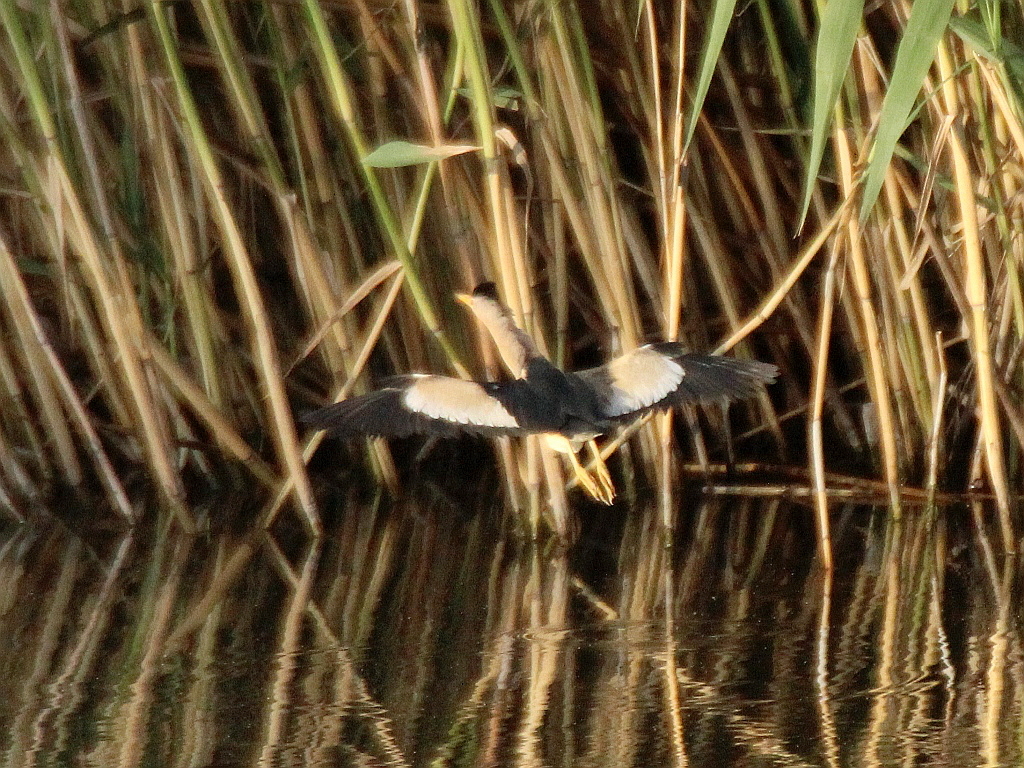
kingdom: Animalia
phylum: Chordata
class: Aves
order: Pelecaniformes
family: Ardeidae
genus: Ixobrychus
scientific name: Ixobrychus minutus
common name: Little bittern
